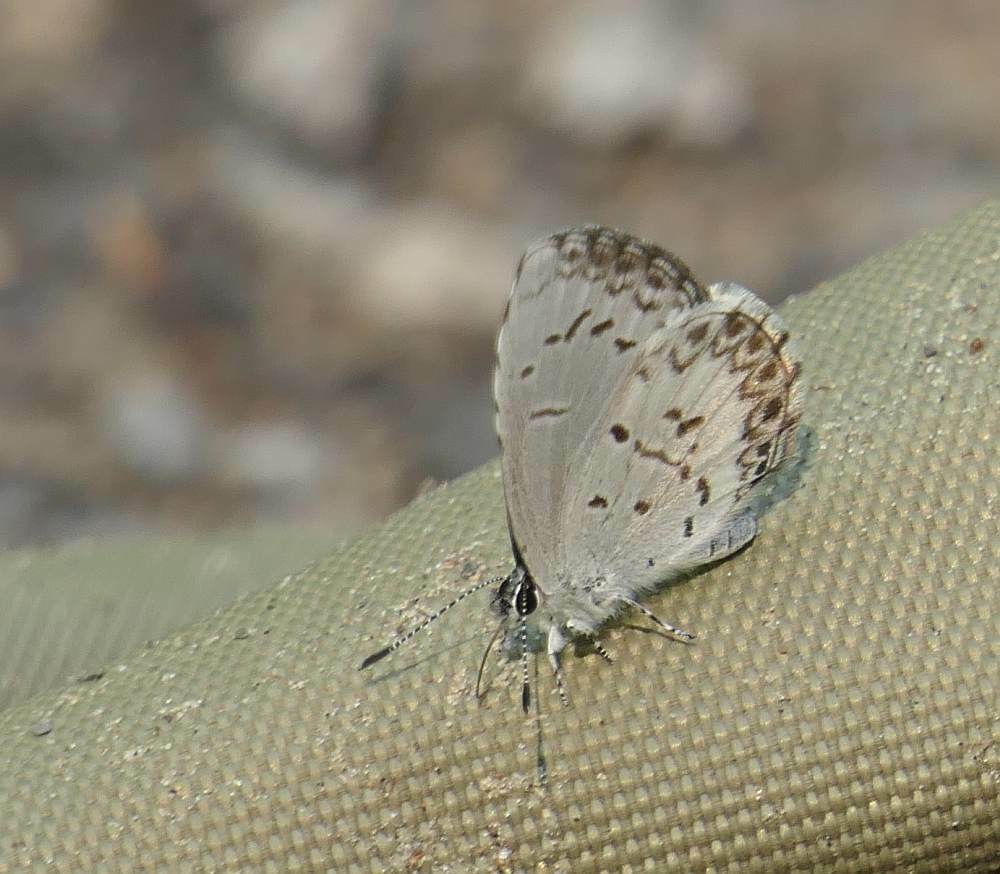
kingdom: Animalia
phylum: Arthropoda
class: Insecta
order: Lepidoptera
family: Lycaenidae
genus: Celastrina
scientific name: Celastrina lucia
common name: Lucia azure
